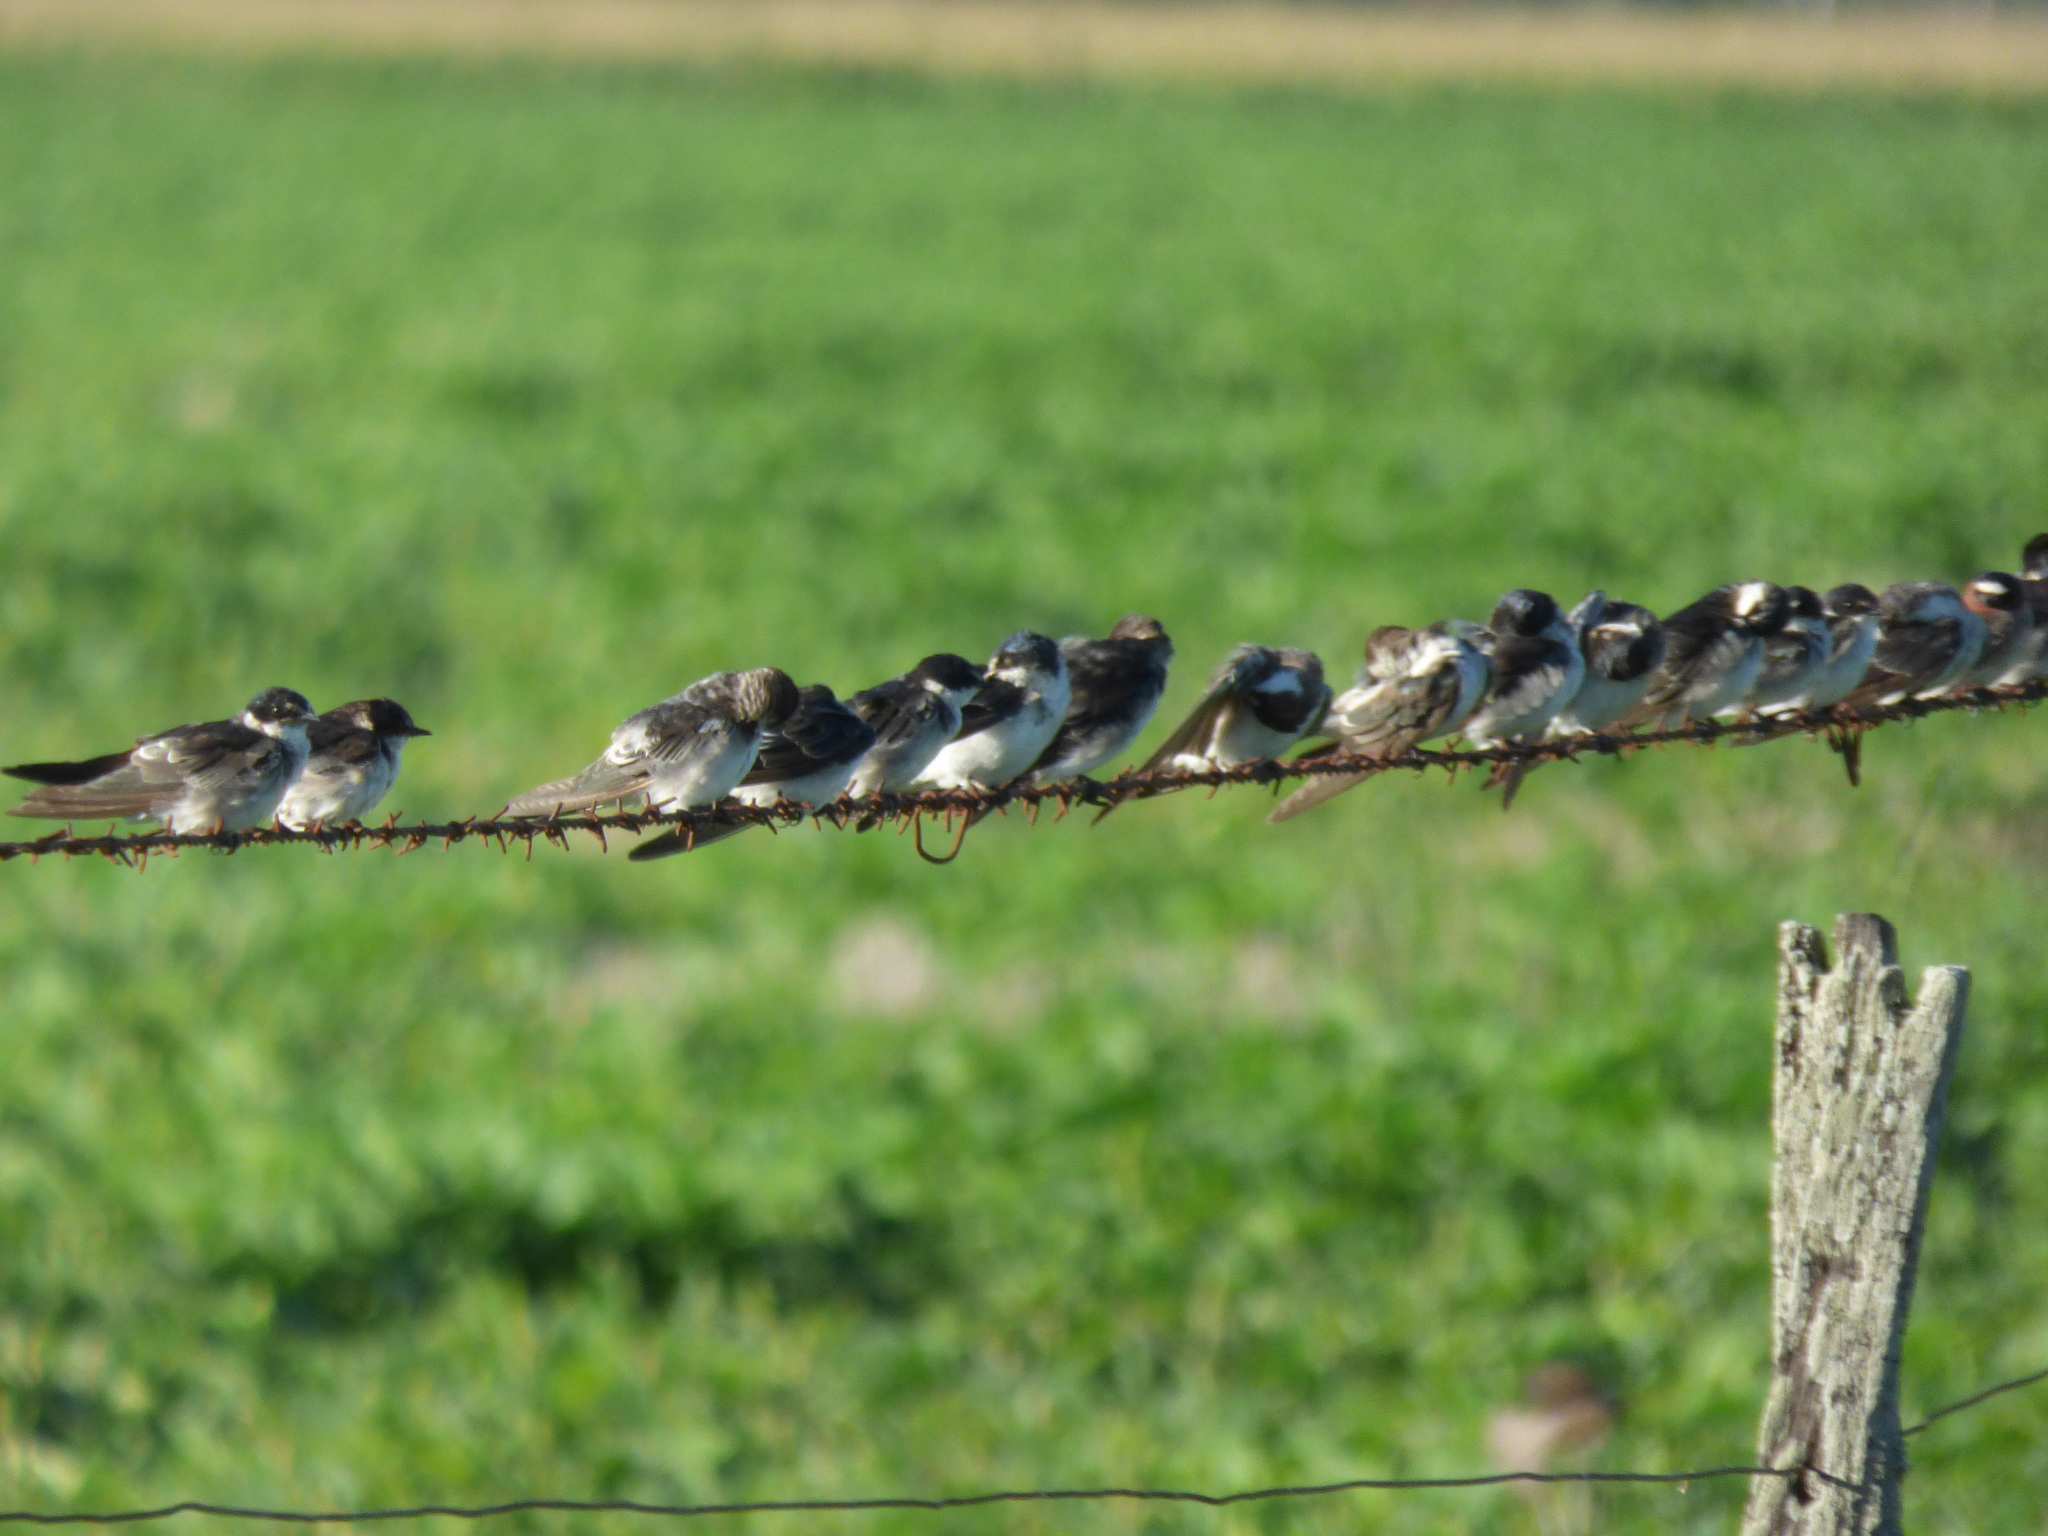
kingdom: Animalia
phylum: Chordata
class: Aves
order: Passeriformes
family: Hirundinidae
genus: Tachycineta
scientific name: Tachycineta leucorrhoa
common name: White-rumped swallow
